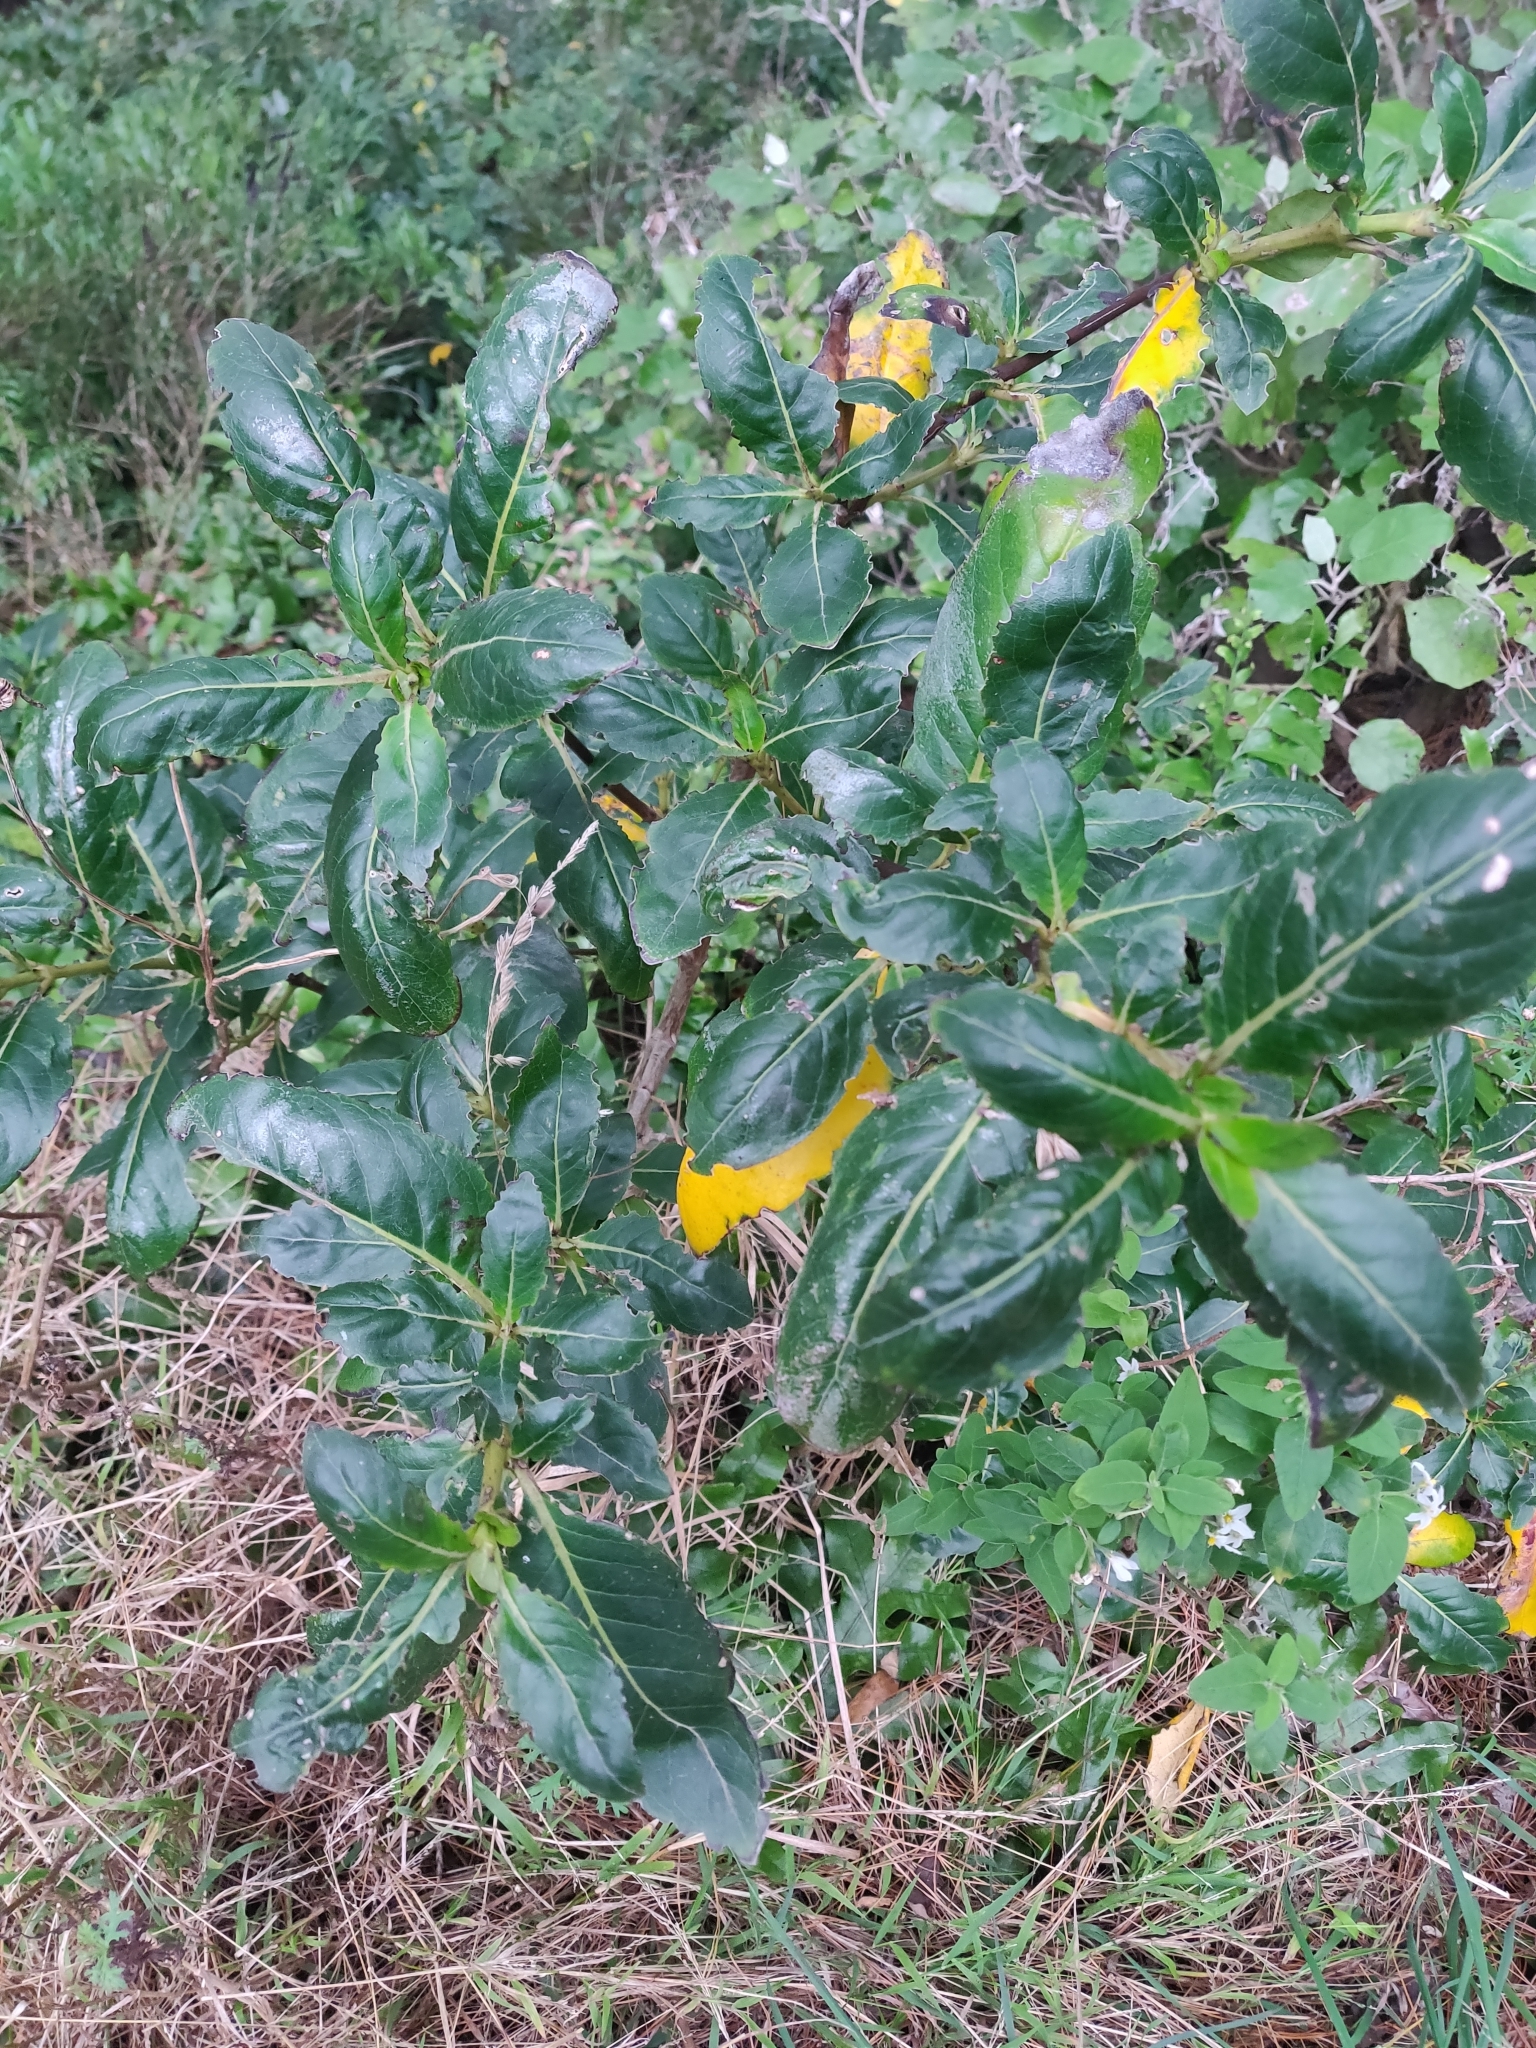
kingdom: Plantae
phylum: Tracheophyta
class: Magnoliopsida
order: Gentianales
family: Rubiaceae
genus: Coprosma
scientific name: Coprosma robusta
